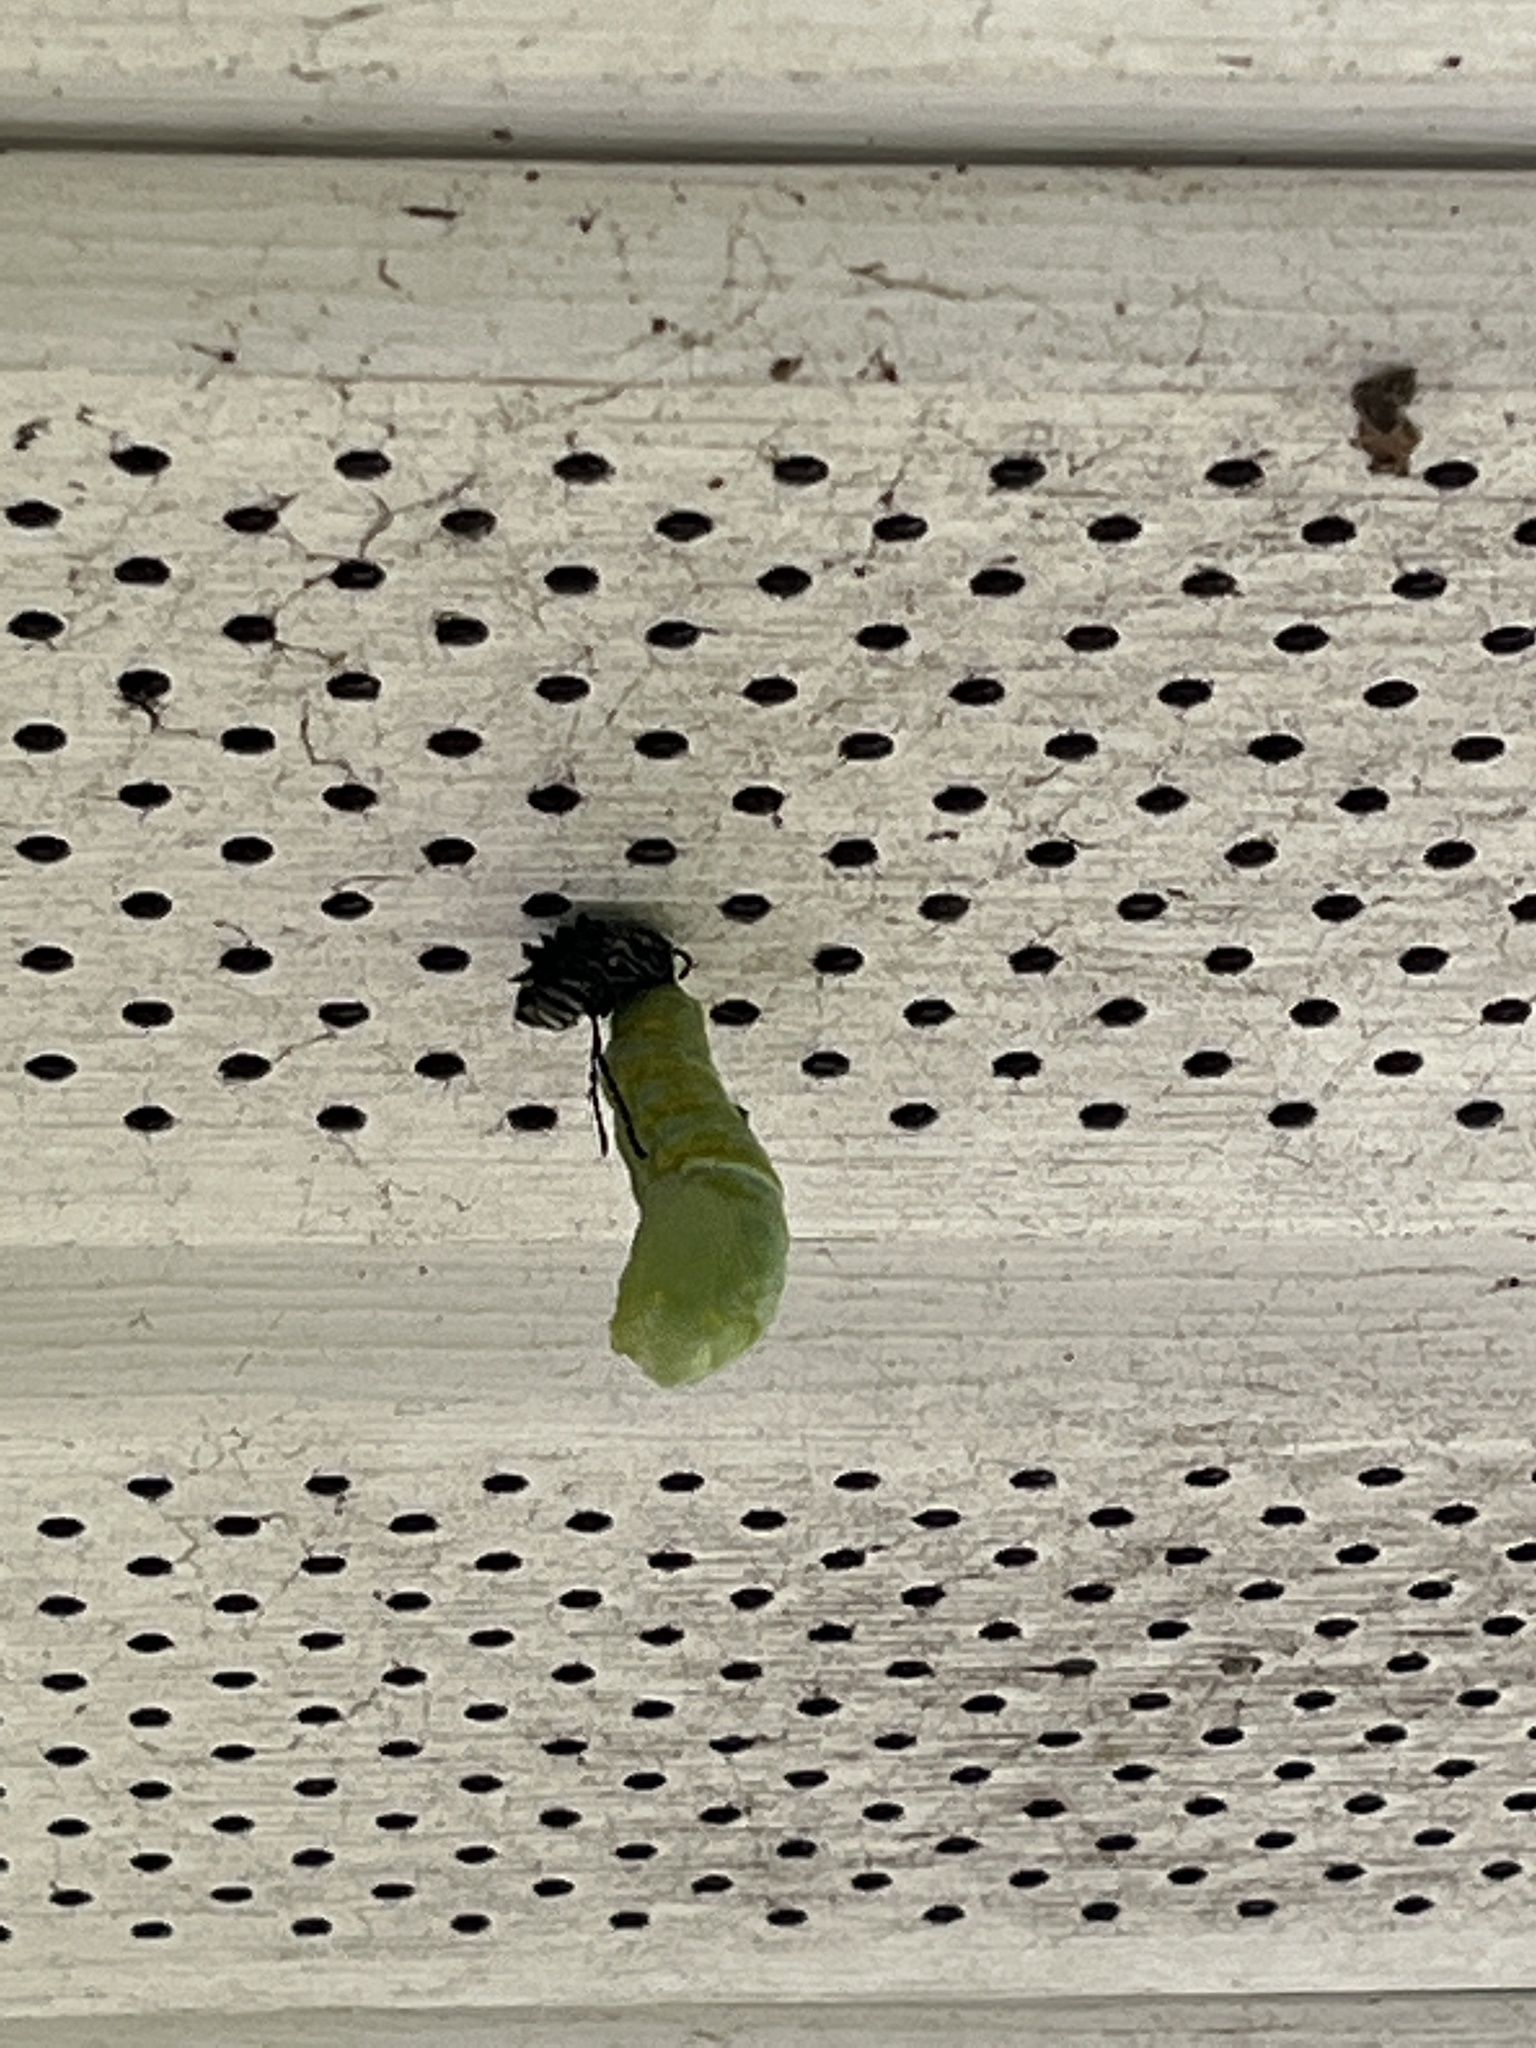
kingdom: Animalia
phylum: Arthropoda
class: Insecta
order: Lepidoptera
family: Nymphalidae
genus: Danaus
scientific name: Danaus plexippus
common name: Monarch
